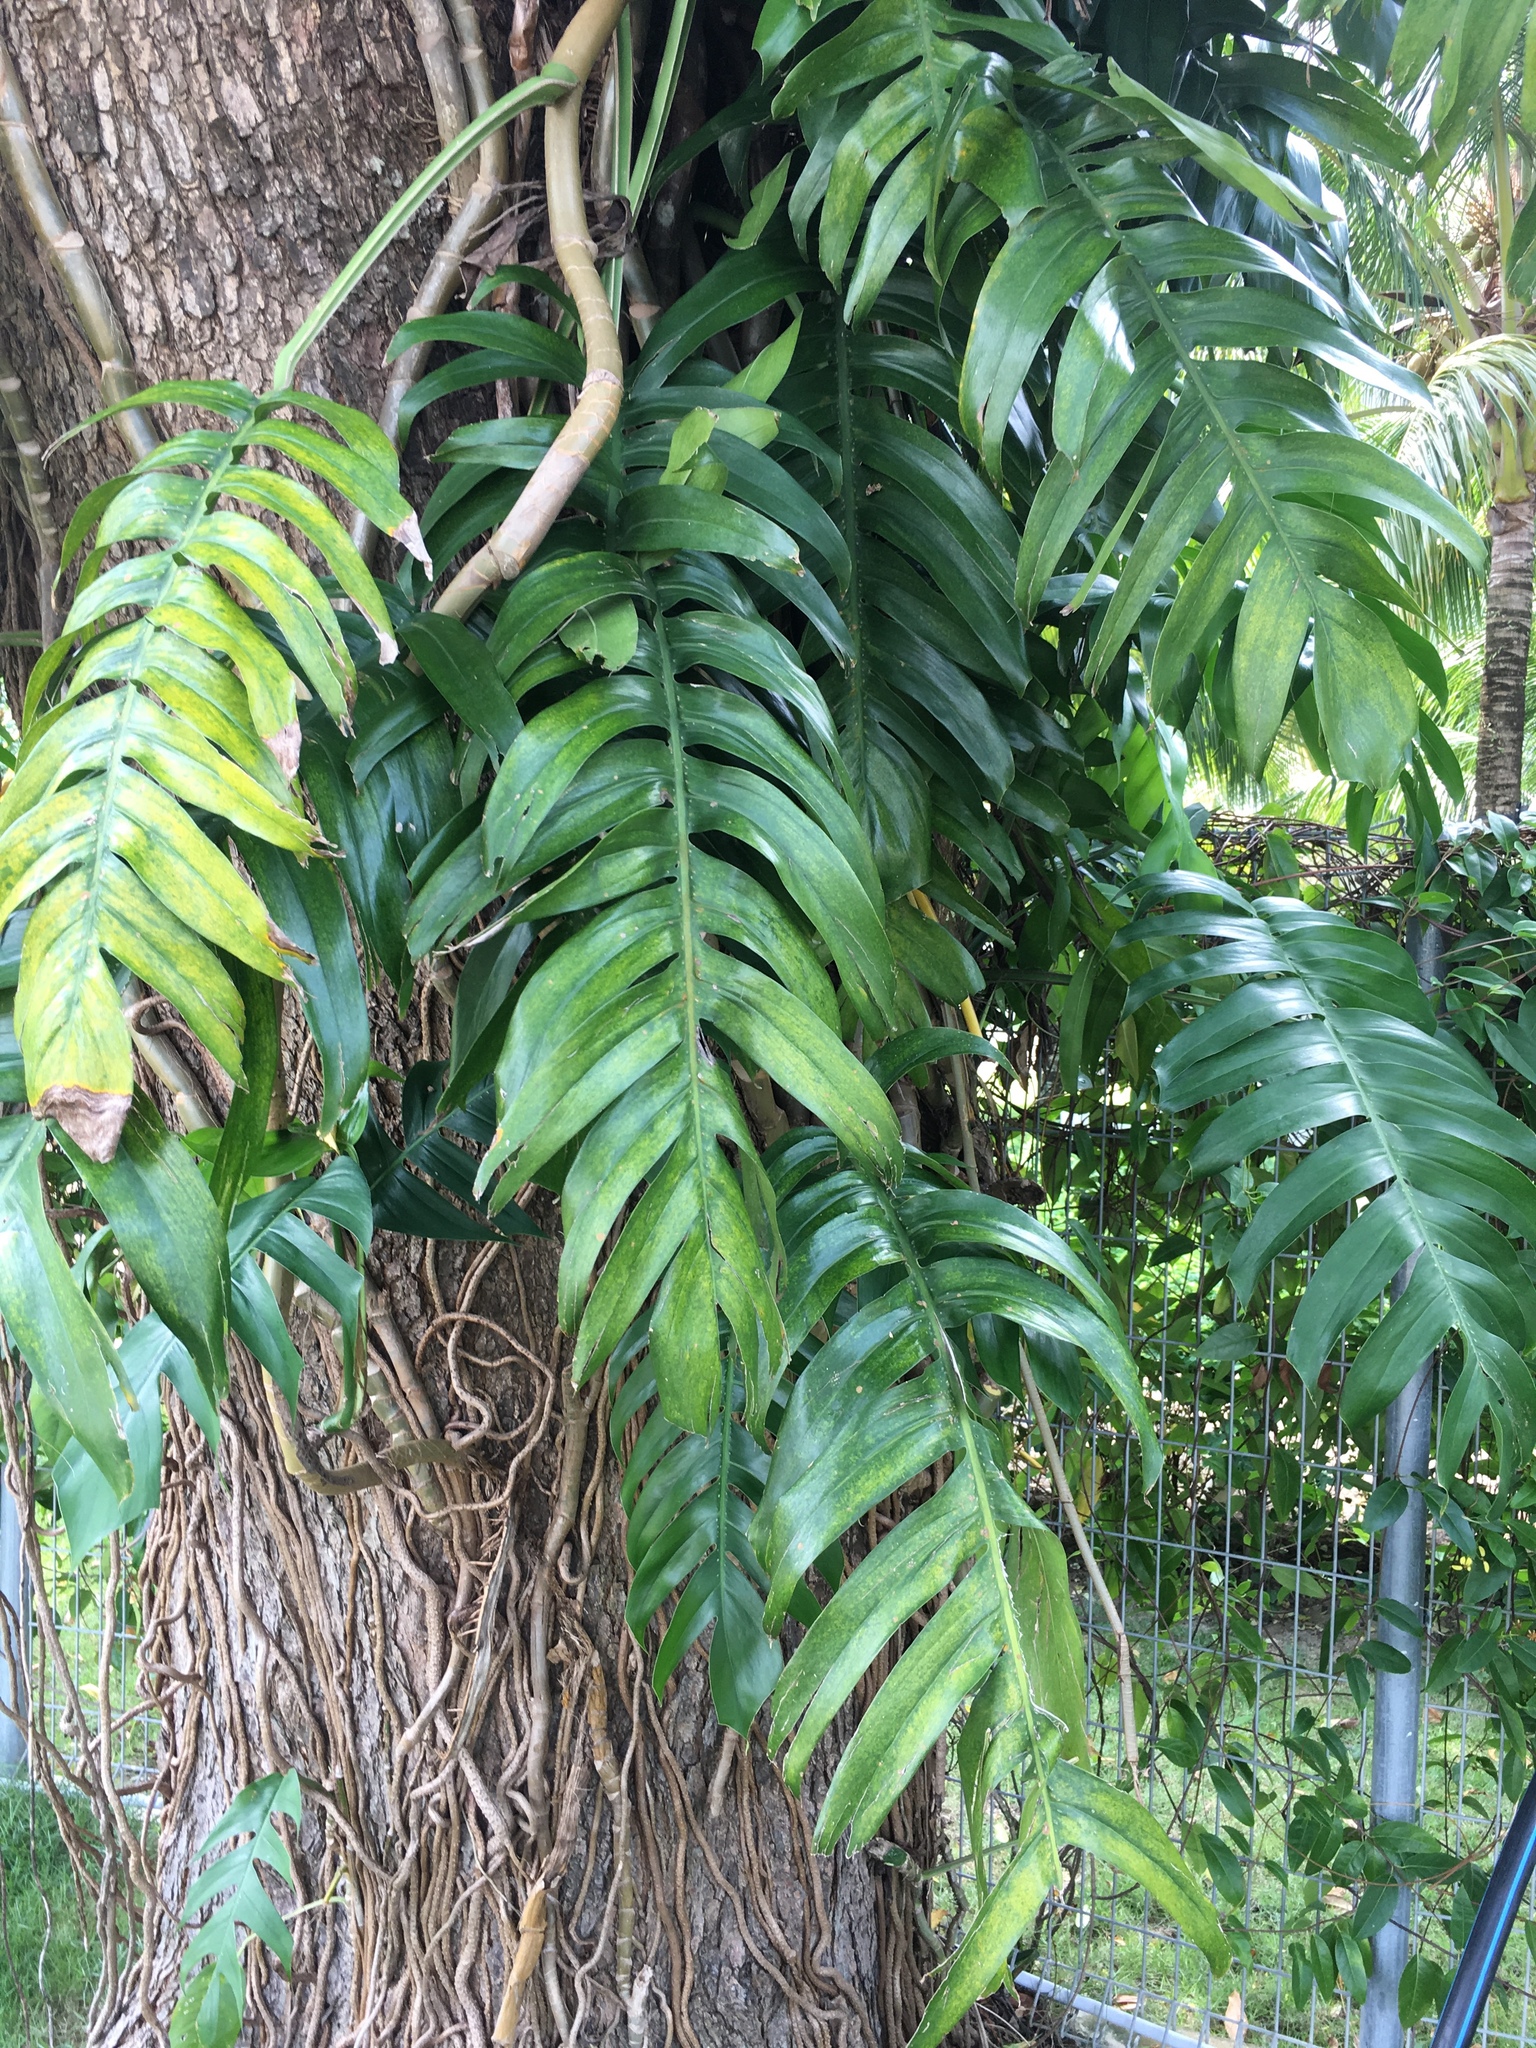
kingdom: Plantae
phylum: Tracheophyta
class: Liliopsida
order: Alismatales
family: Araceae
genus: Epipremnum
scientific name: Epipremnum pinnatum
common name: Centipede tongavine
